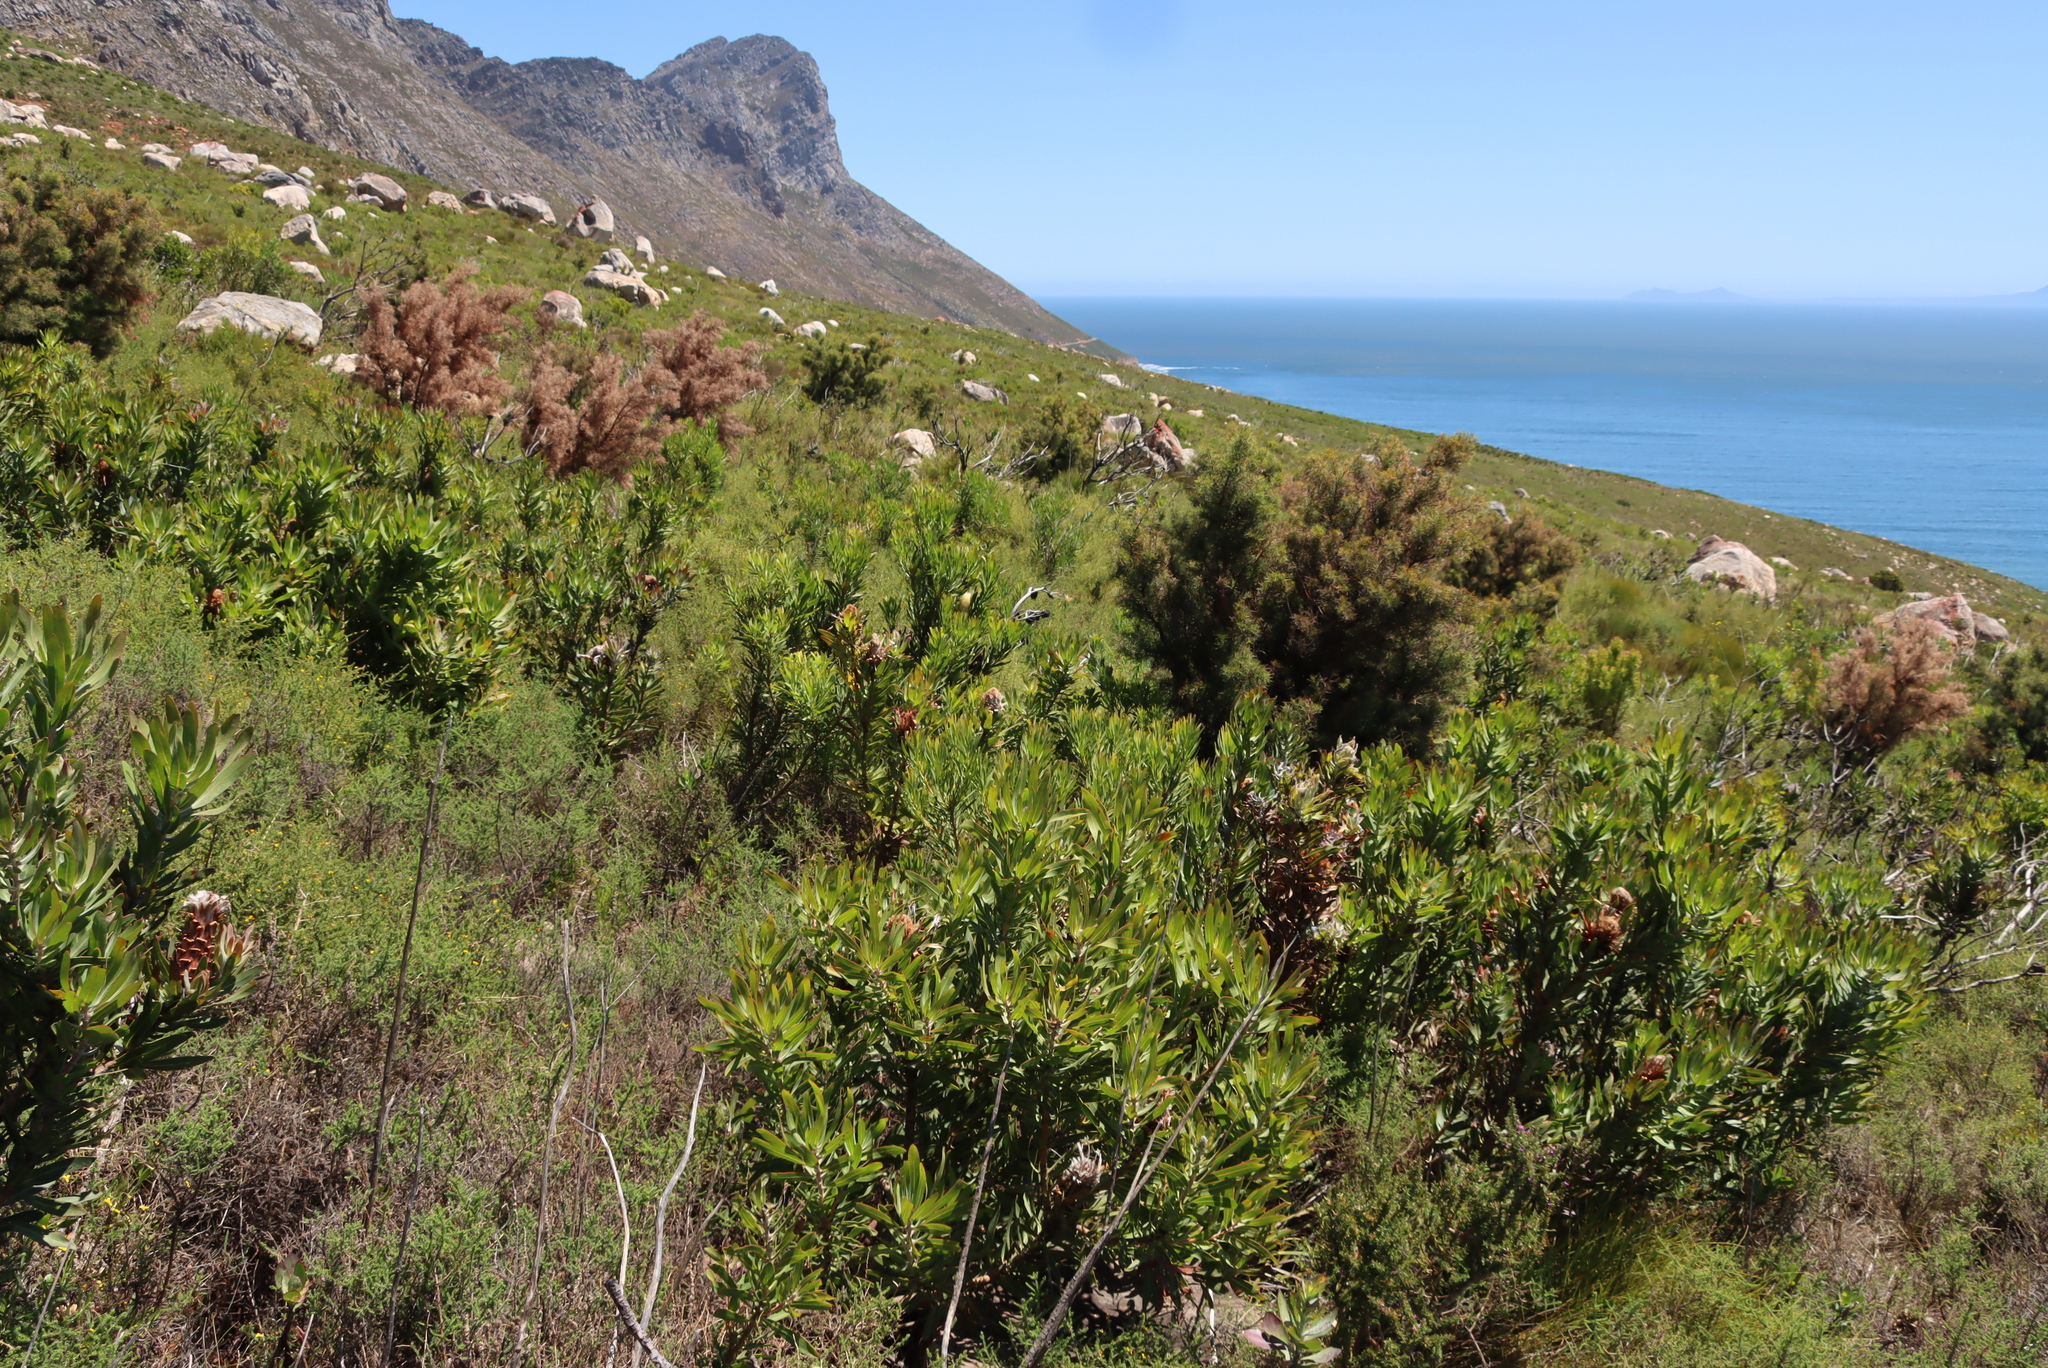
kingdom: Plantae
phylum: Tracheophyta
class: Magnoliopsida
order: Proteales
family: Proteaceae
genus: Hakea
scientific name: Hakea sericea
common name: Needle bush
